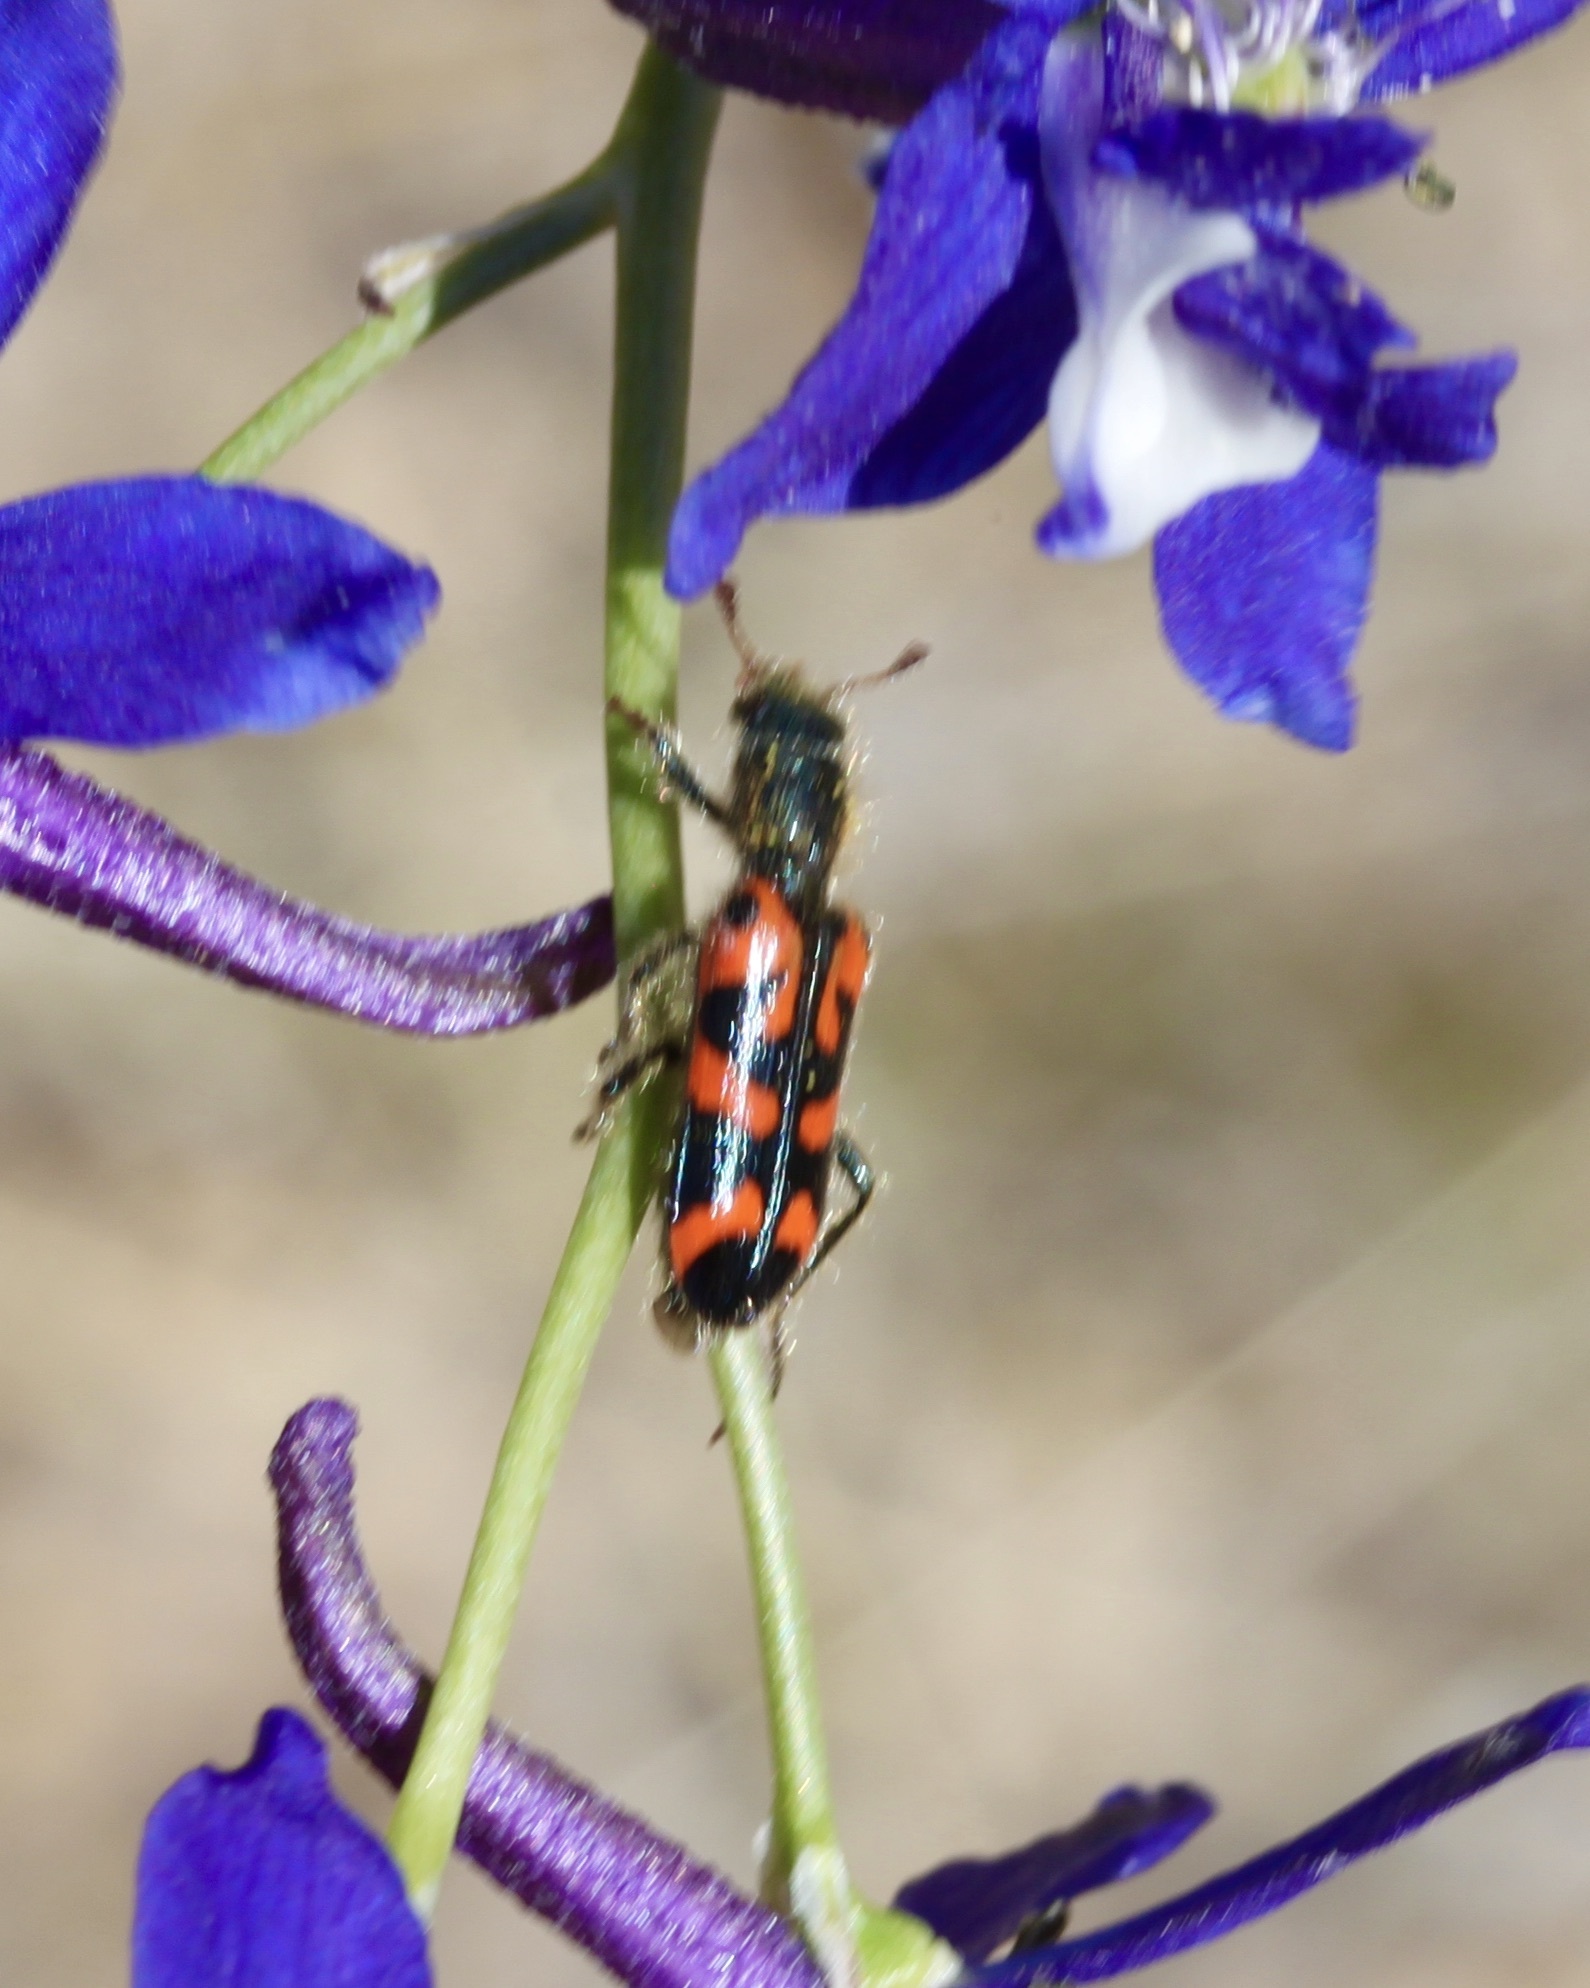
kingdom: Animalia
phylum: Arthropoda
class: Insecta
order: Coleoptera
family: Cleridae
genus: Trichodes
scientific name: Trichodes ornatus
